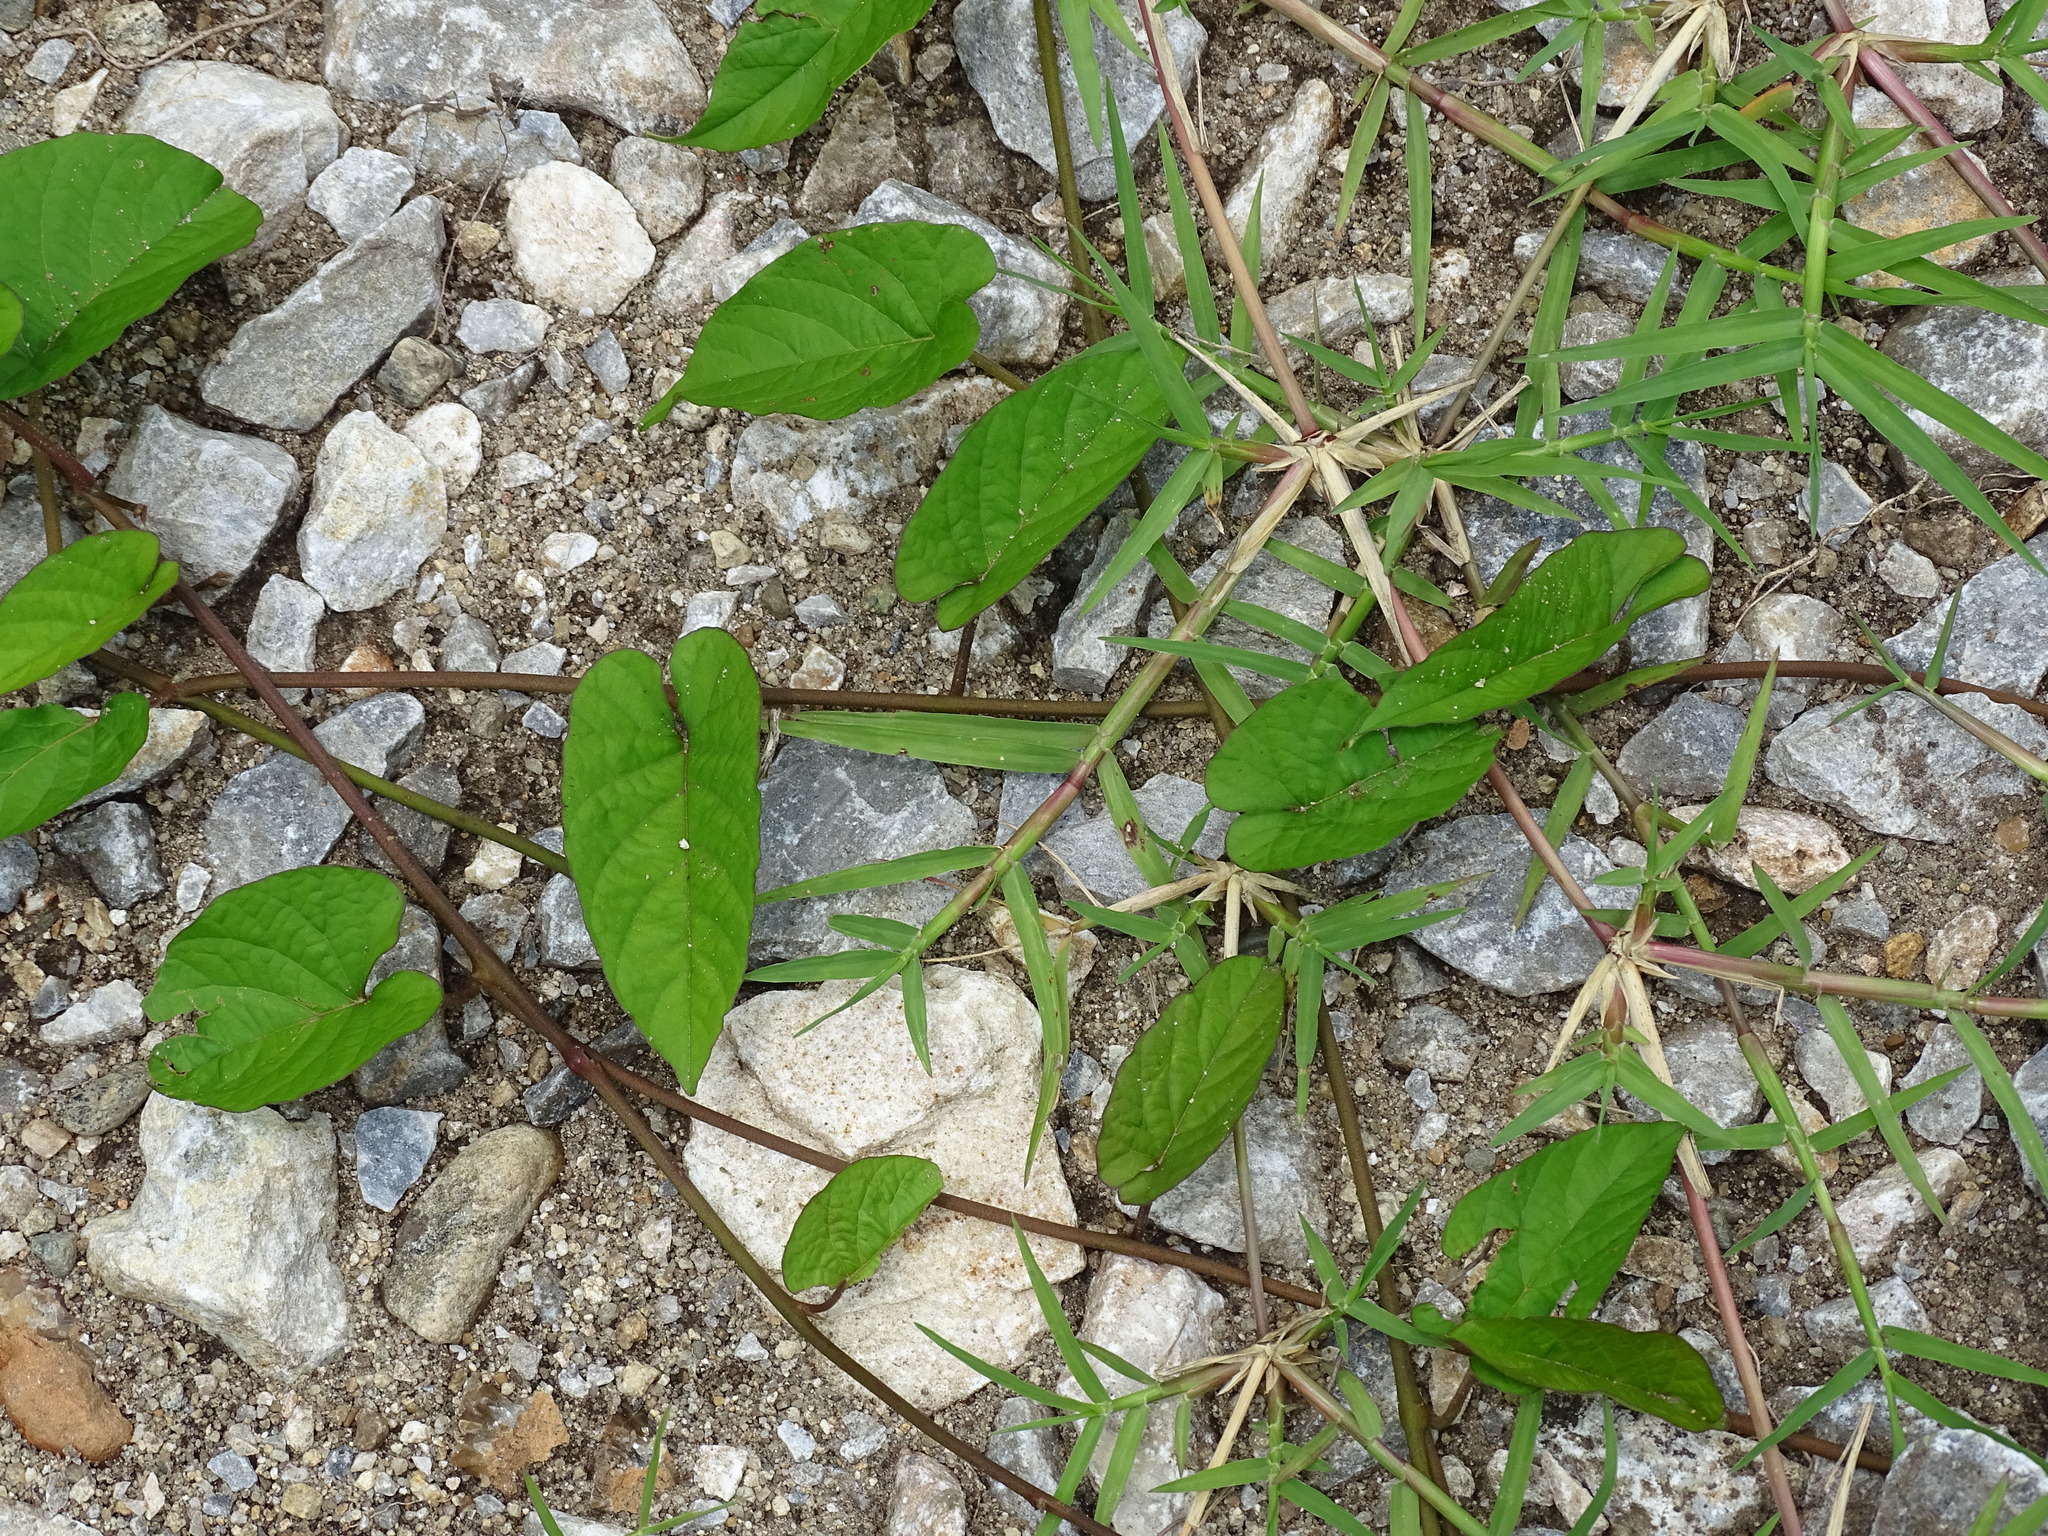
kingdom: Plantae
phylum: Tracheophyta
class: Magnoliopsida
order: Solanales
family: Convolvulaceae
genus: Camonea
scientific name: Camonea umbellata
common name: Hogvine
